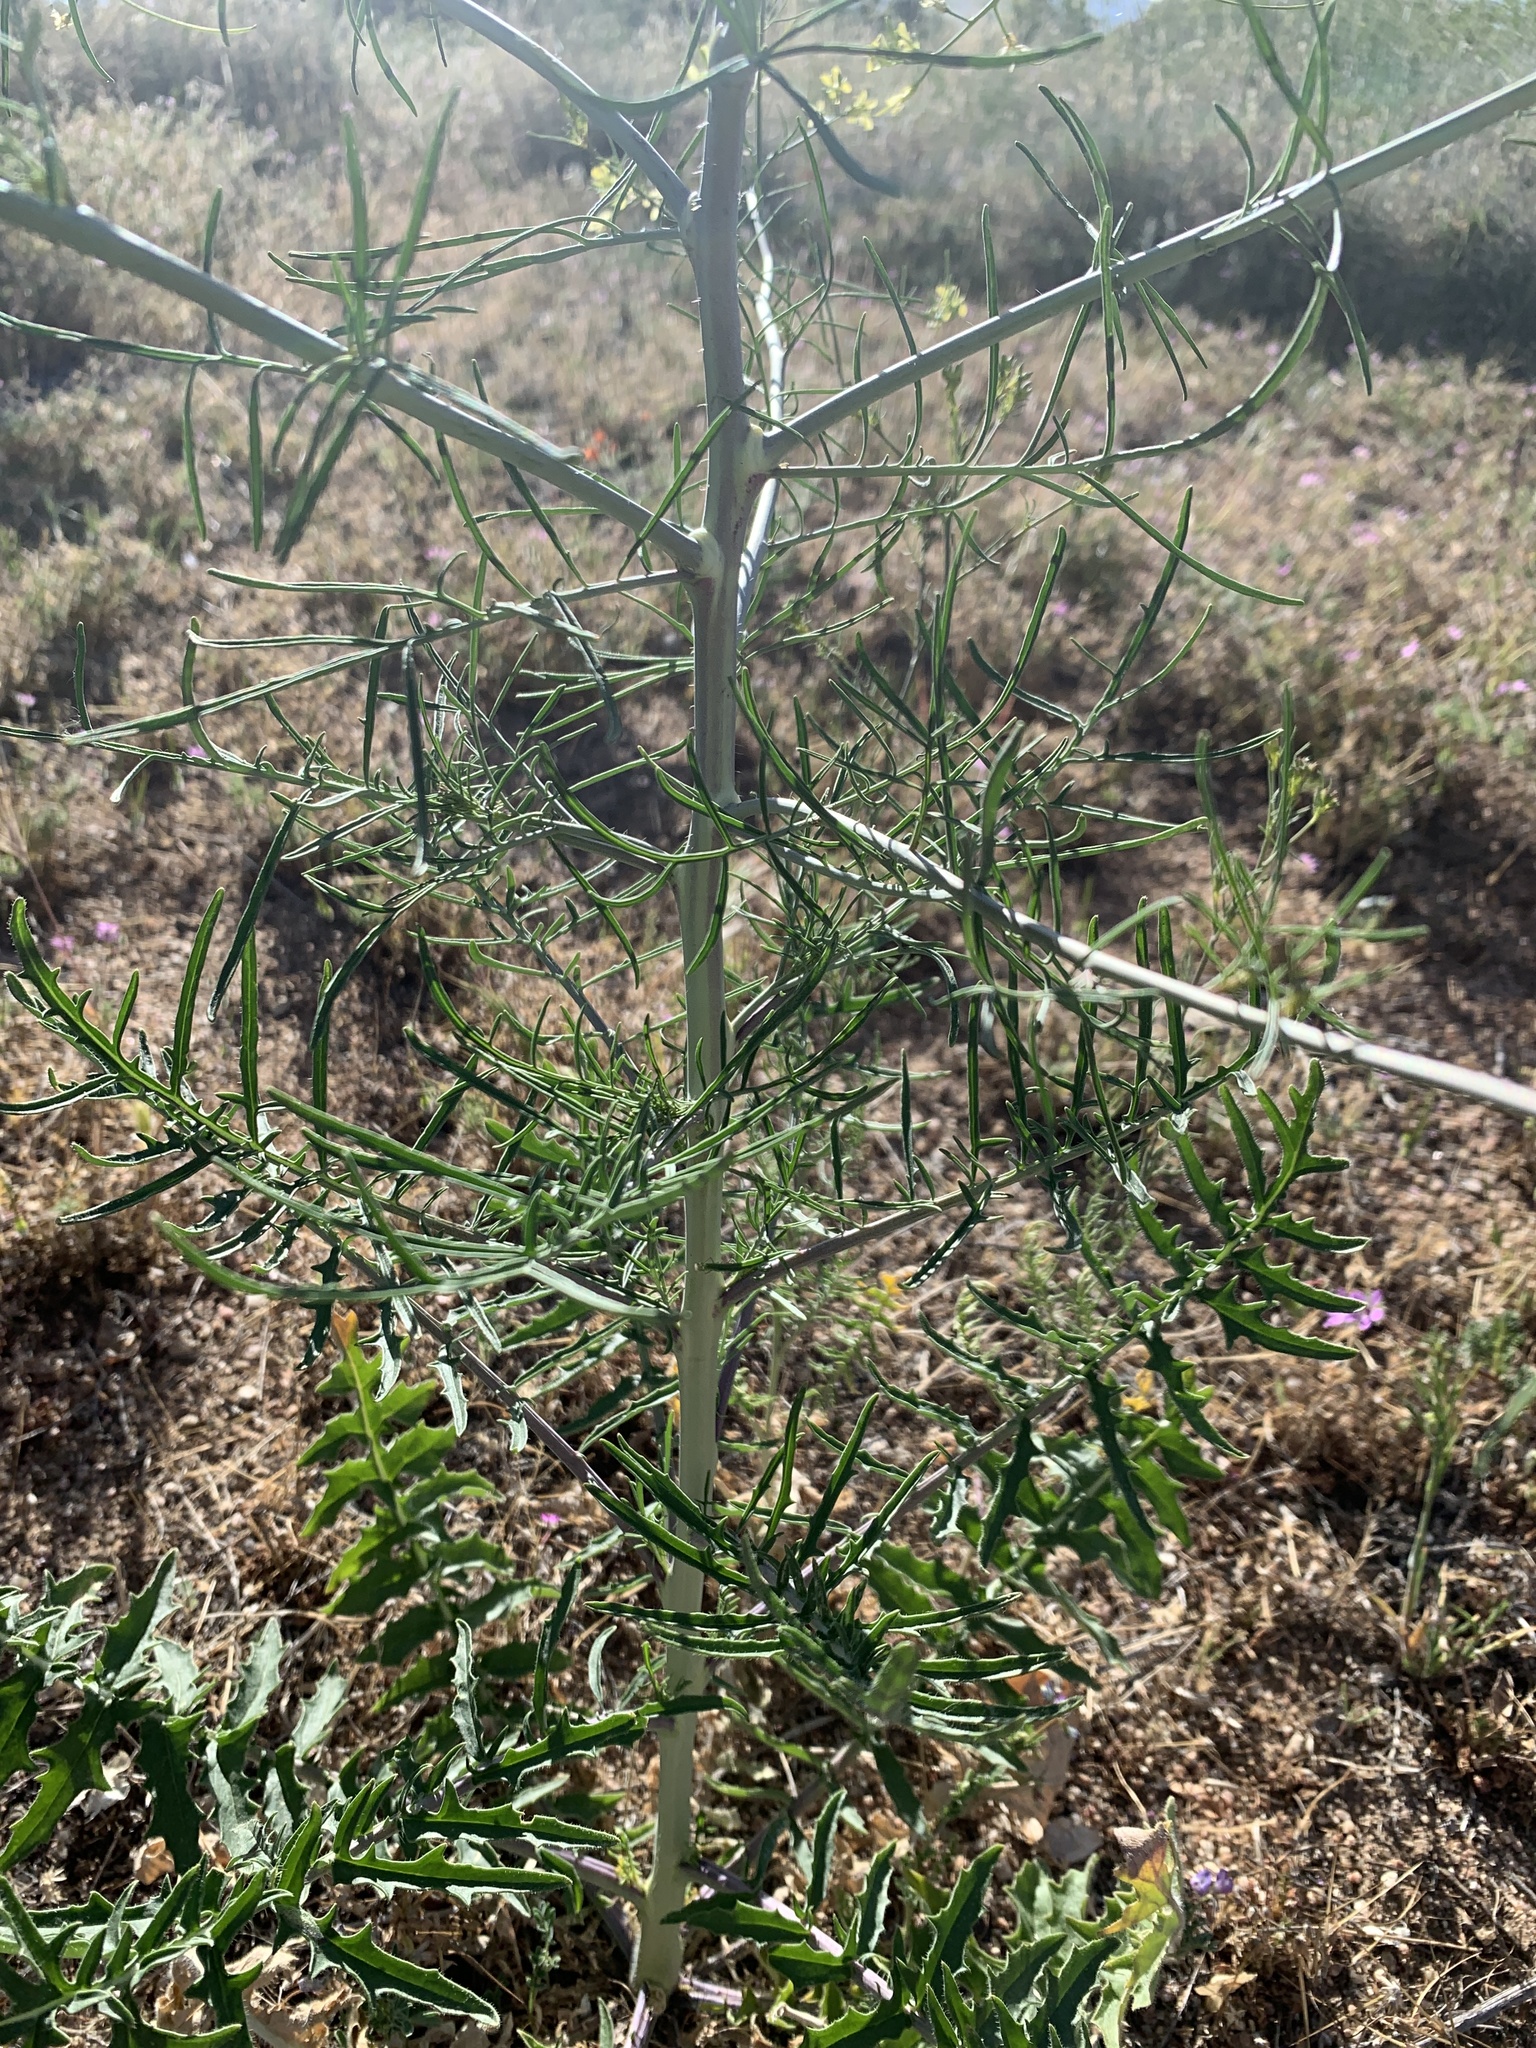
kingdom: Plantae
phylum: Tracheophyta
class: Magnoliopsida
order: Brassicales
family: Brassicaceae
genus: Sisymbrium
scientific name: Sisymbrium altissimum
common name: Tall rocket
